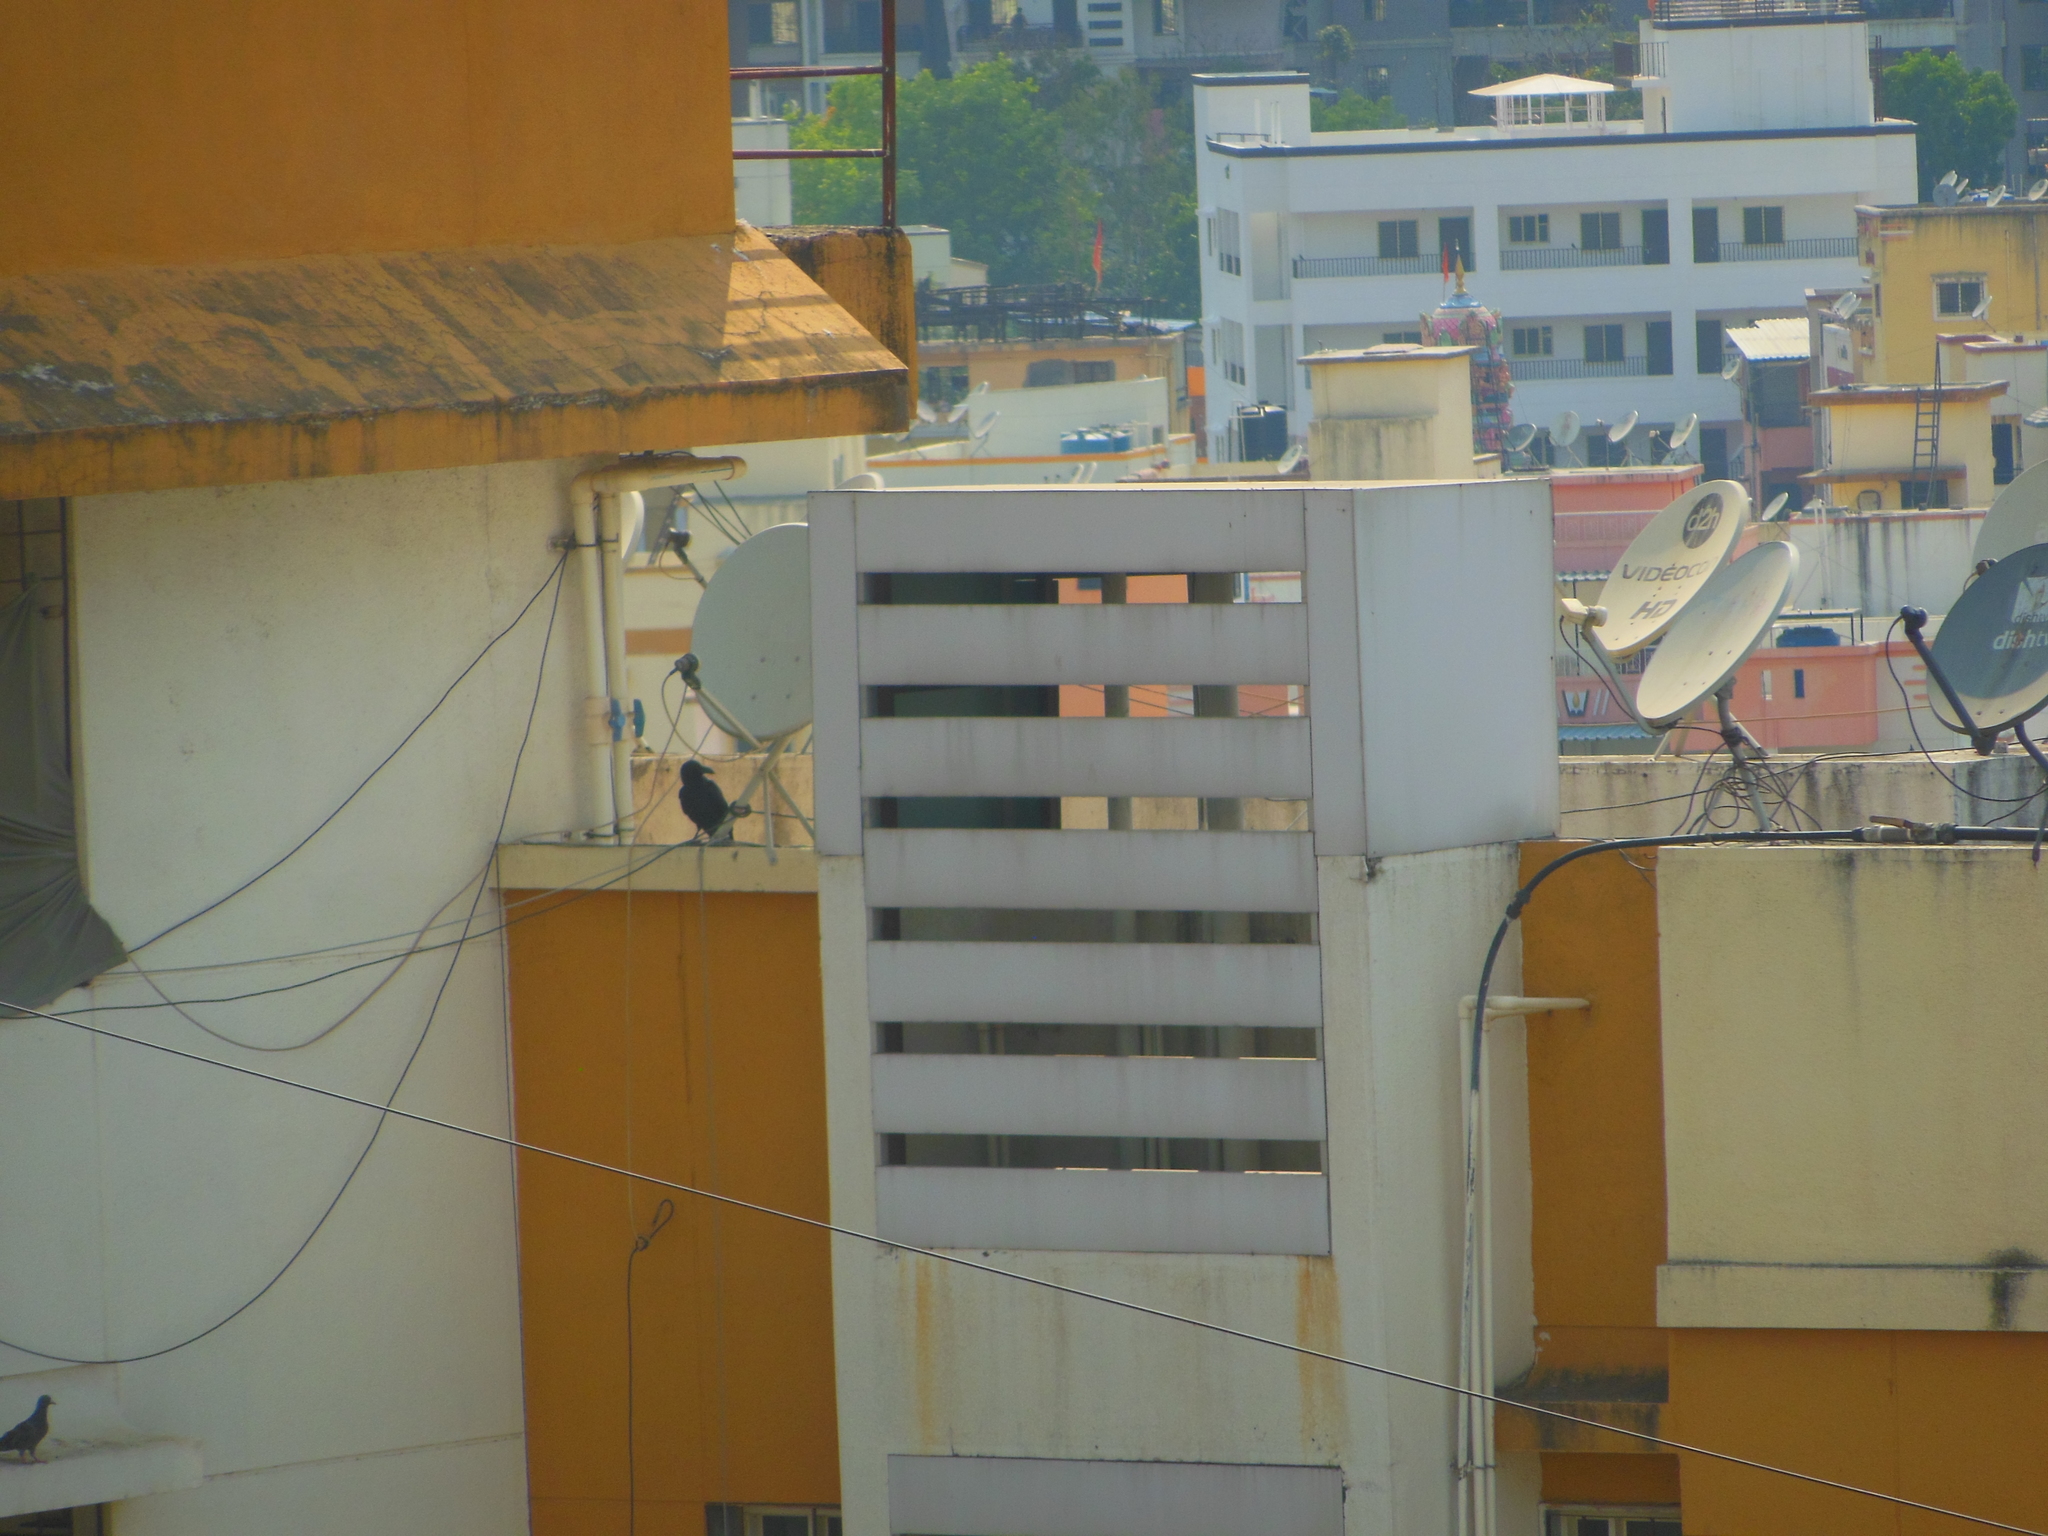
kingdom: Animalia
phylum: Chordata
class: Aves
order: Passeriformes
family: Corvidae
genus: Corvus
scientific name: Corvus macrorhynchos
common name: Large-billed crow
